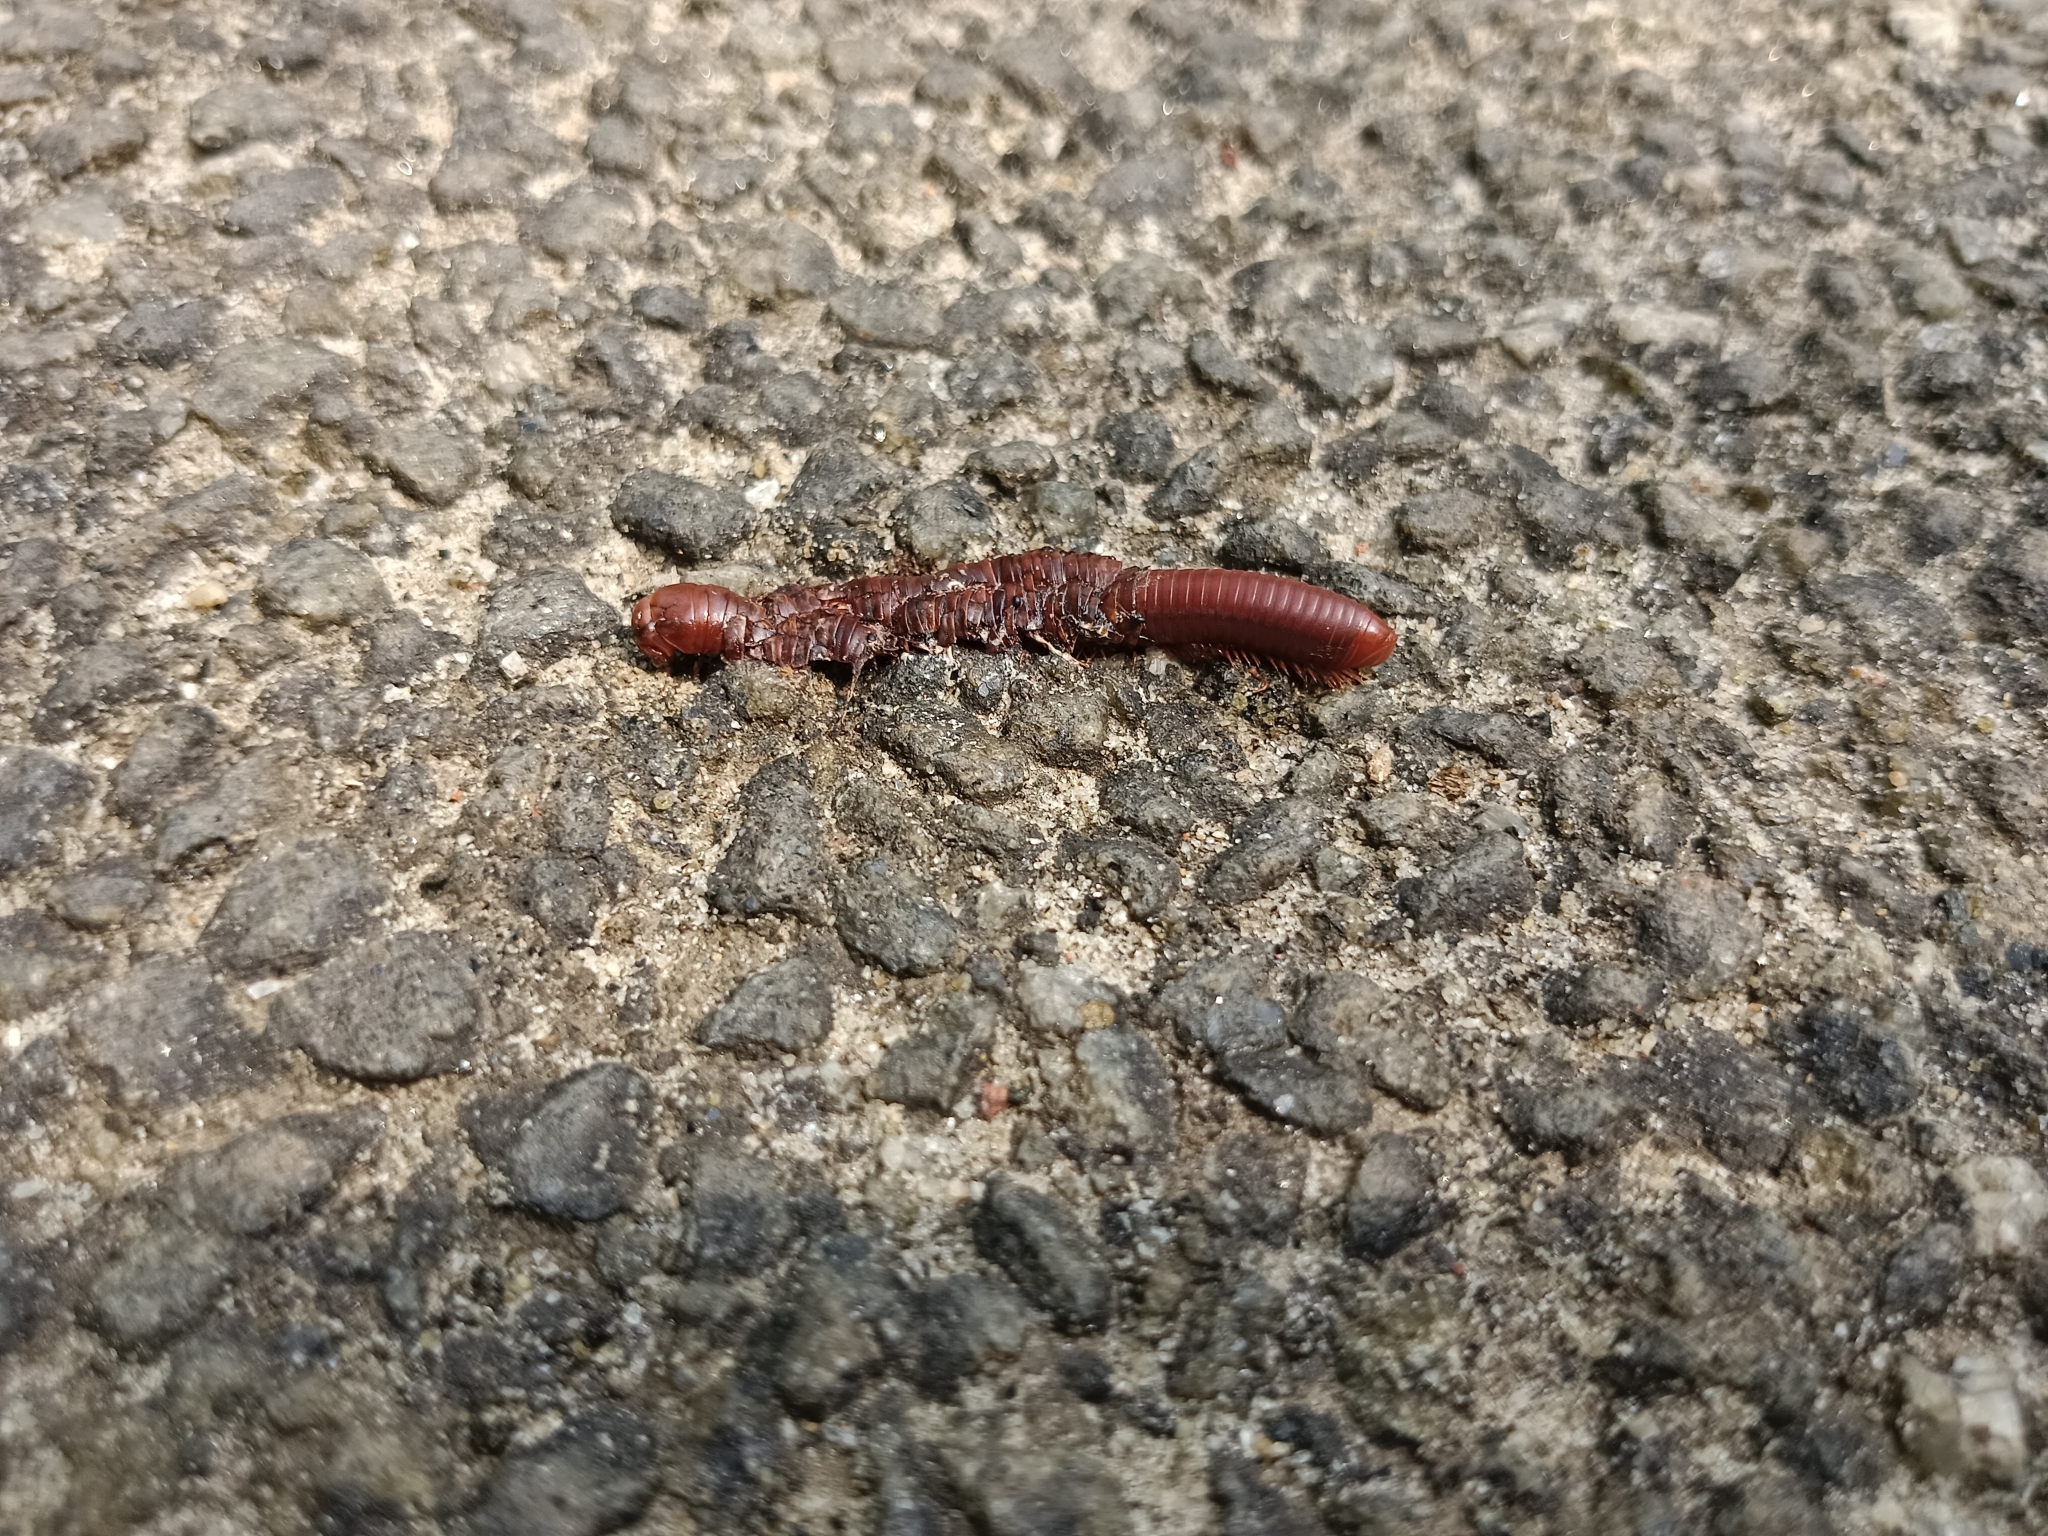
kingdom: Animalia
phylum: Arthropoda
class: Diplopoda
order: Spirobolida
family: Pachybolidae
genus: Trigoniulus
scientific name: Trigoniulus corallinus
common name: Millipede
